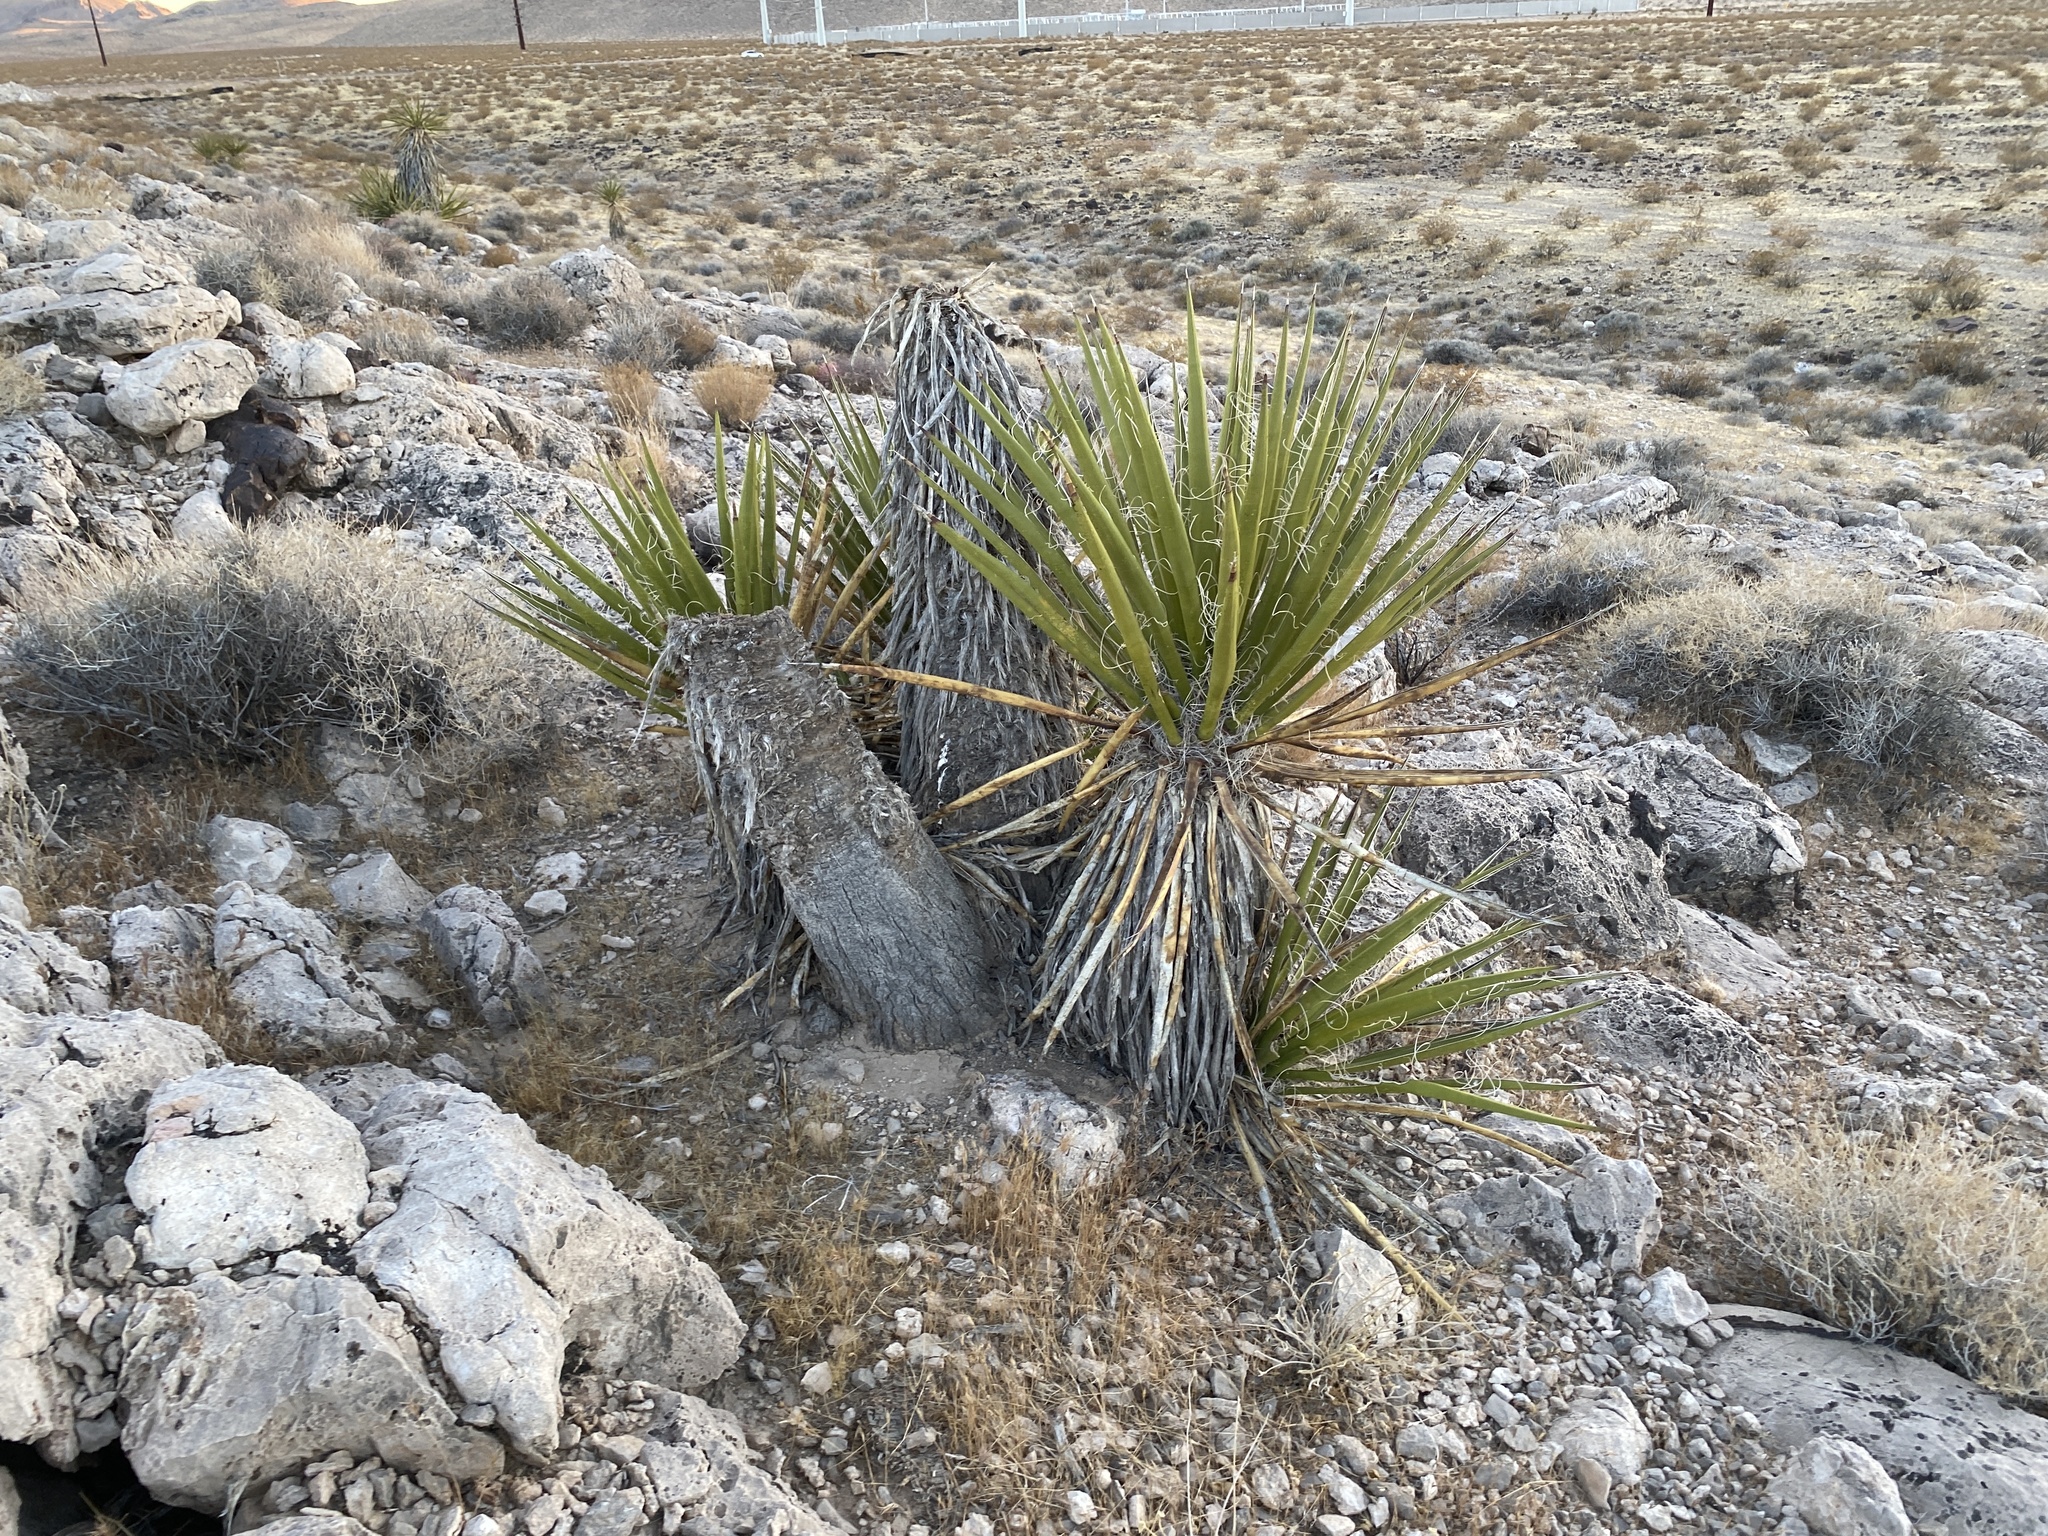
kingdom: Plantae
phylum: Tracheophyta
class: Liliopsida
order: Asparagales
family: Asparagaceae
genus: Yucca
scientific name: Yucca schidigera
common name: Mojave yucca
